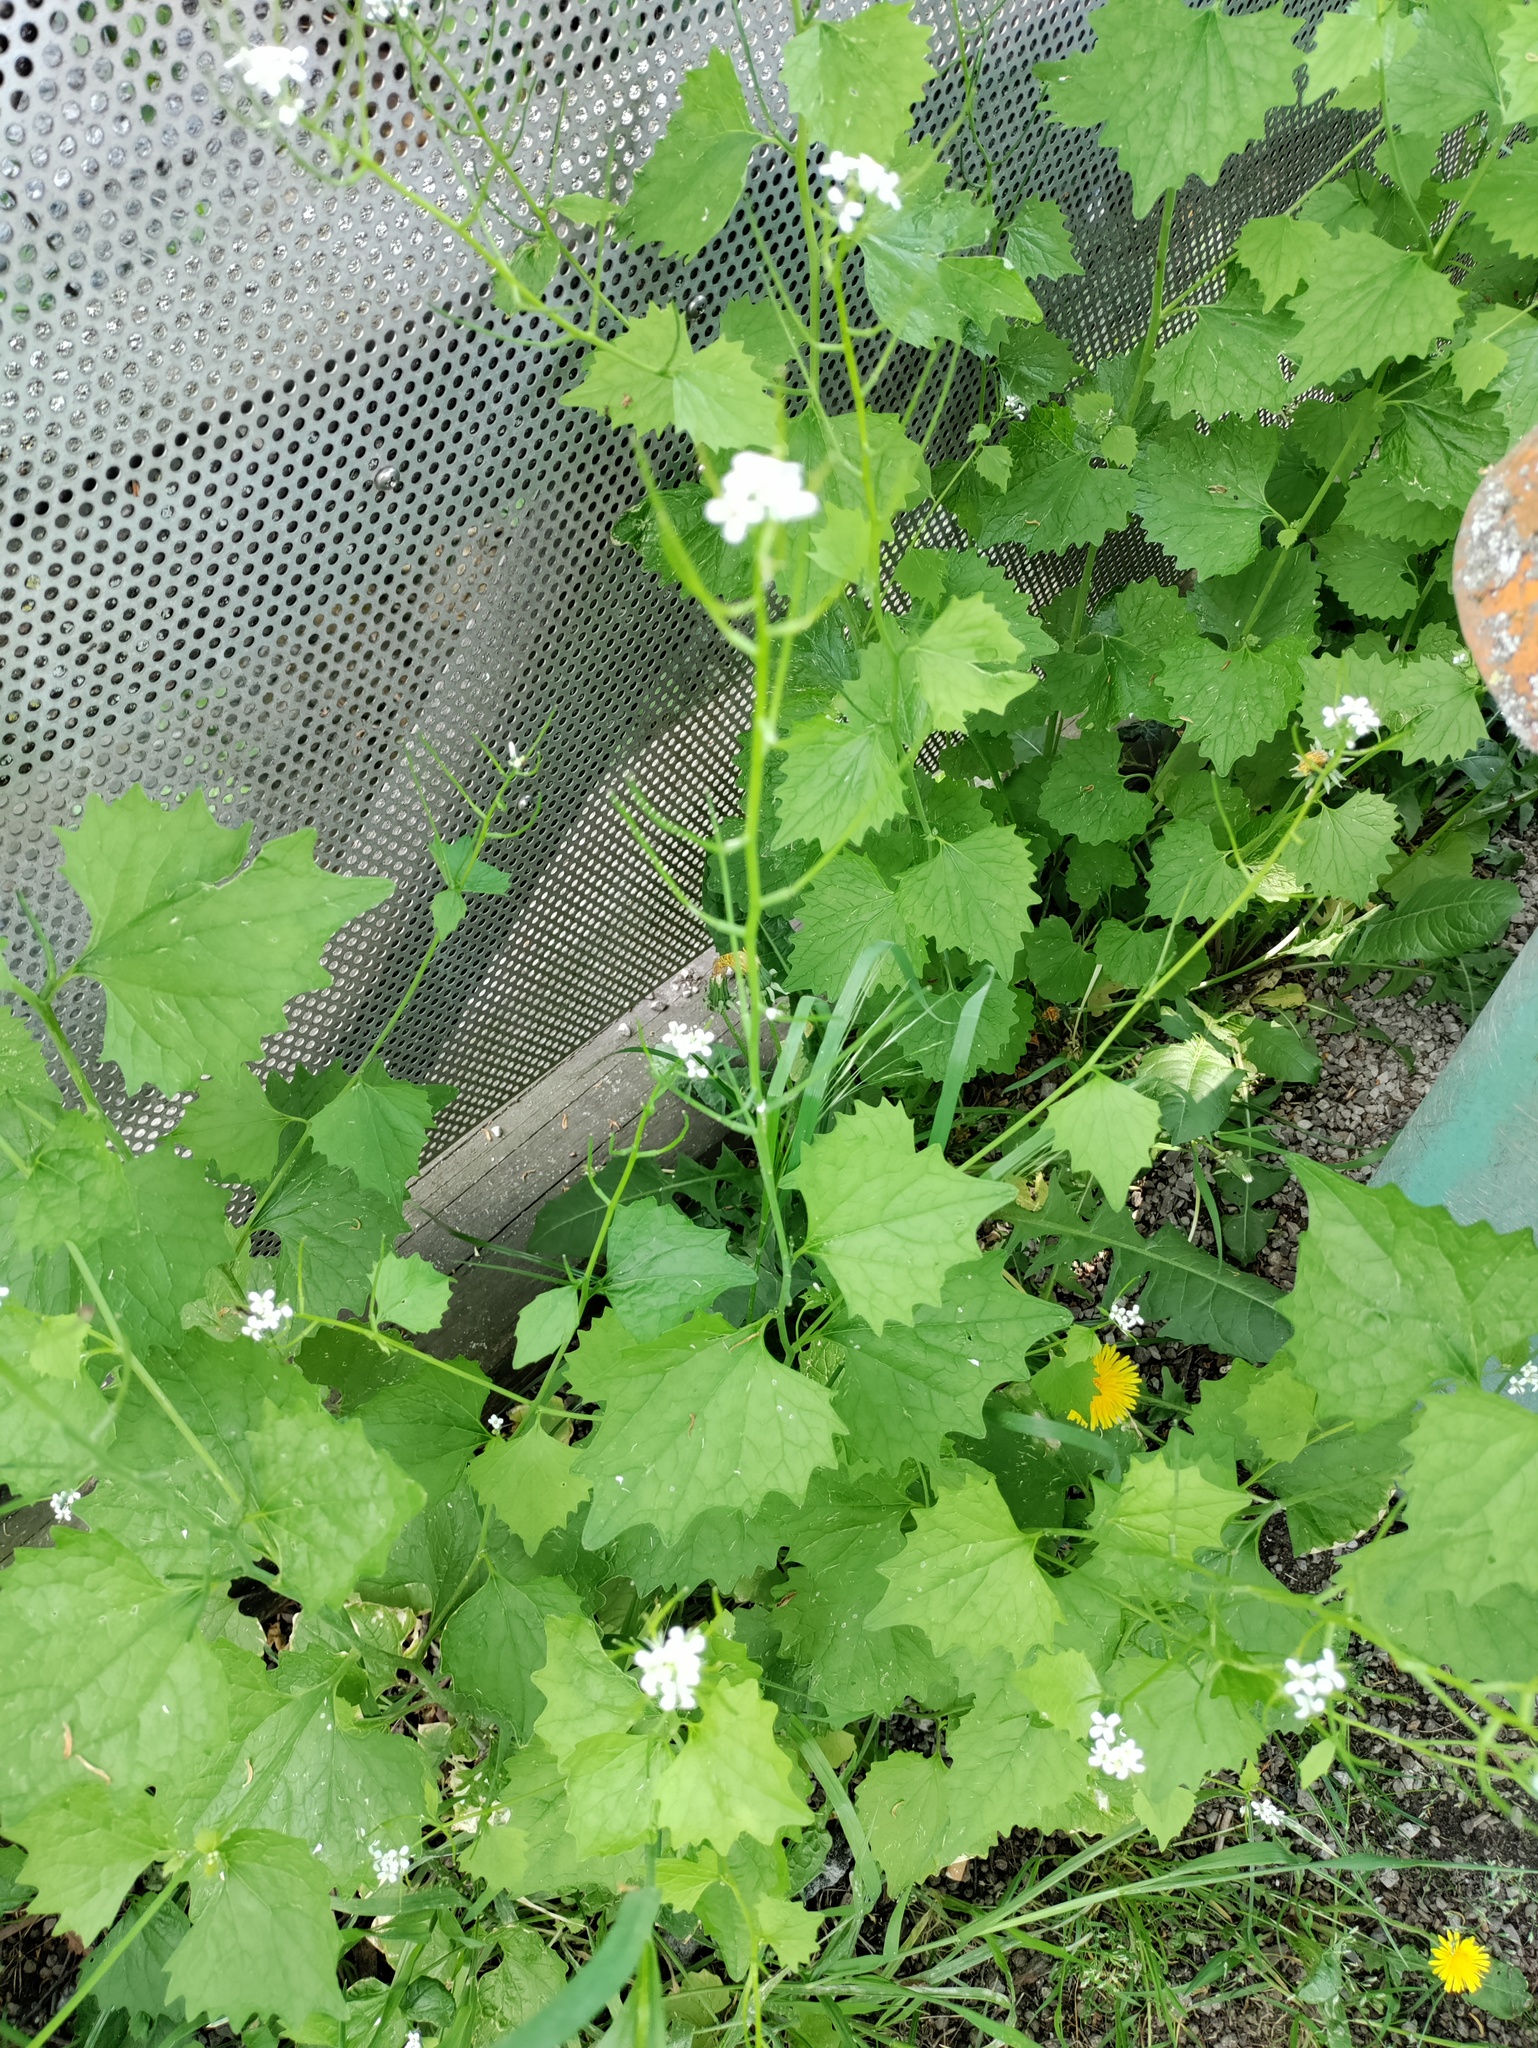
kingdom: Plantae
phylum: Tracheophyta
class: Magnoliopsida
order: Brassicales
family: Brassicaceae
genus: Alliaria
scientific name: Alliaria petiolata
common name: Garlic mustard
